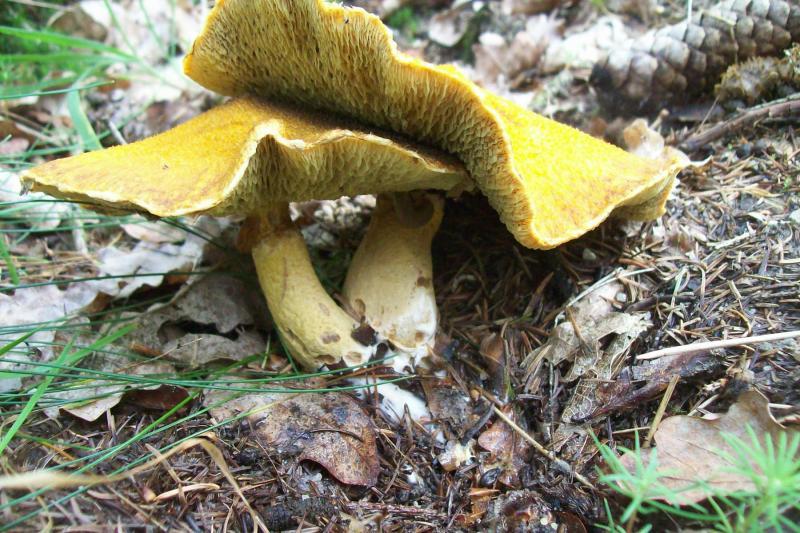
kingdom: Fungi
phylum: Basidiomycota
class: Agaricomycetes
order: Boletales
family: Suillaceae
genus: Suillus
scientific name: Suillus cavipes
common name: Hollow bolete
